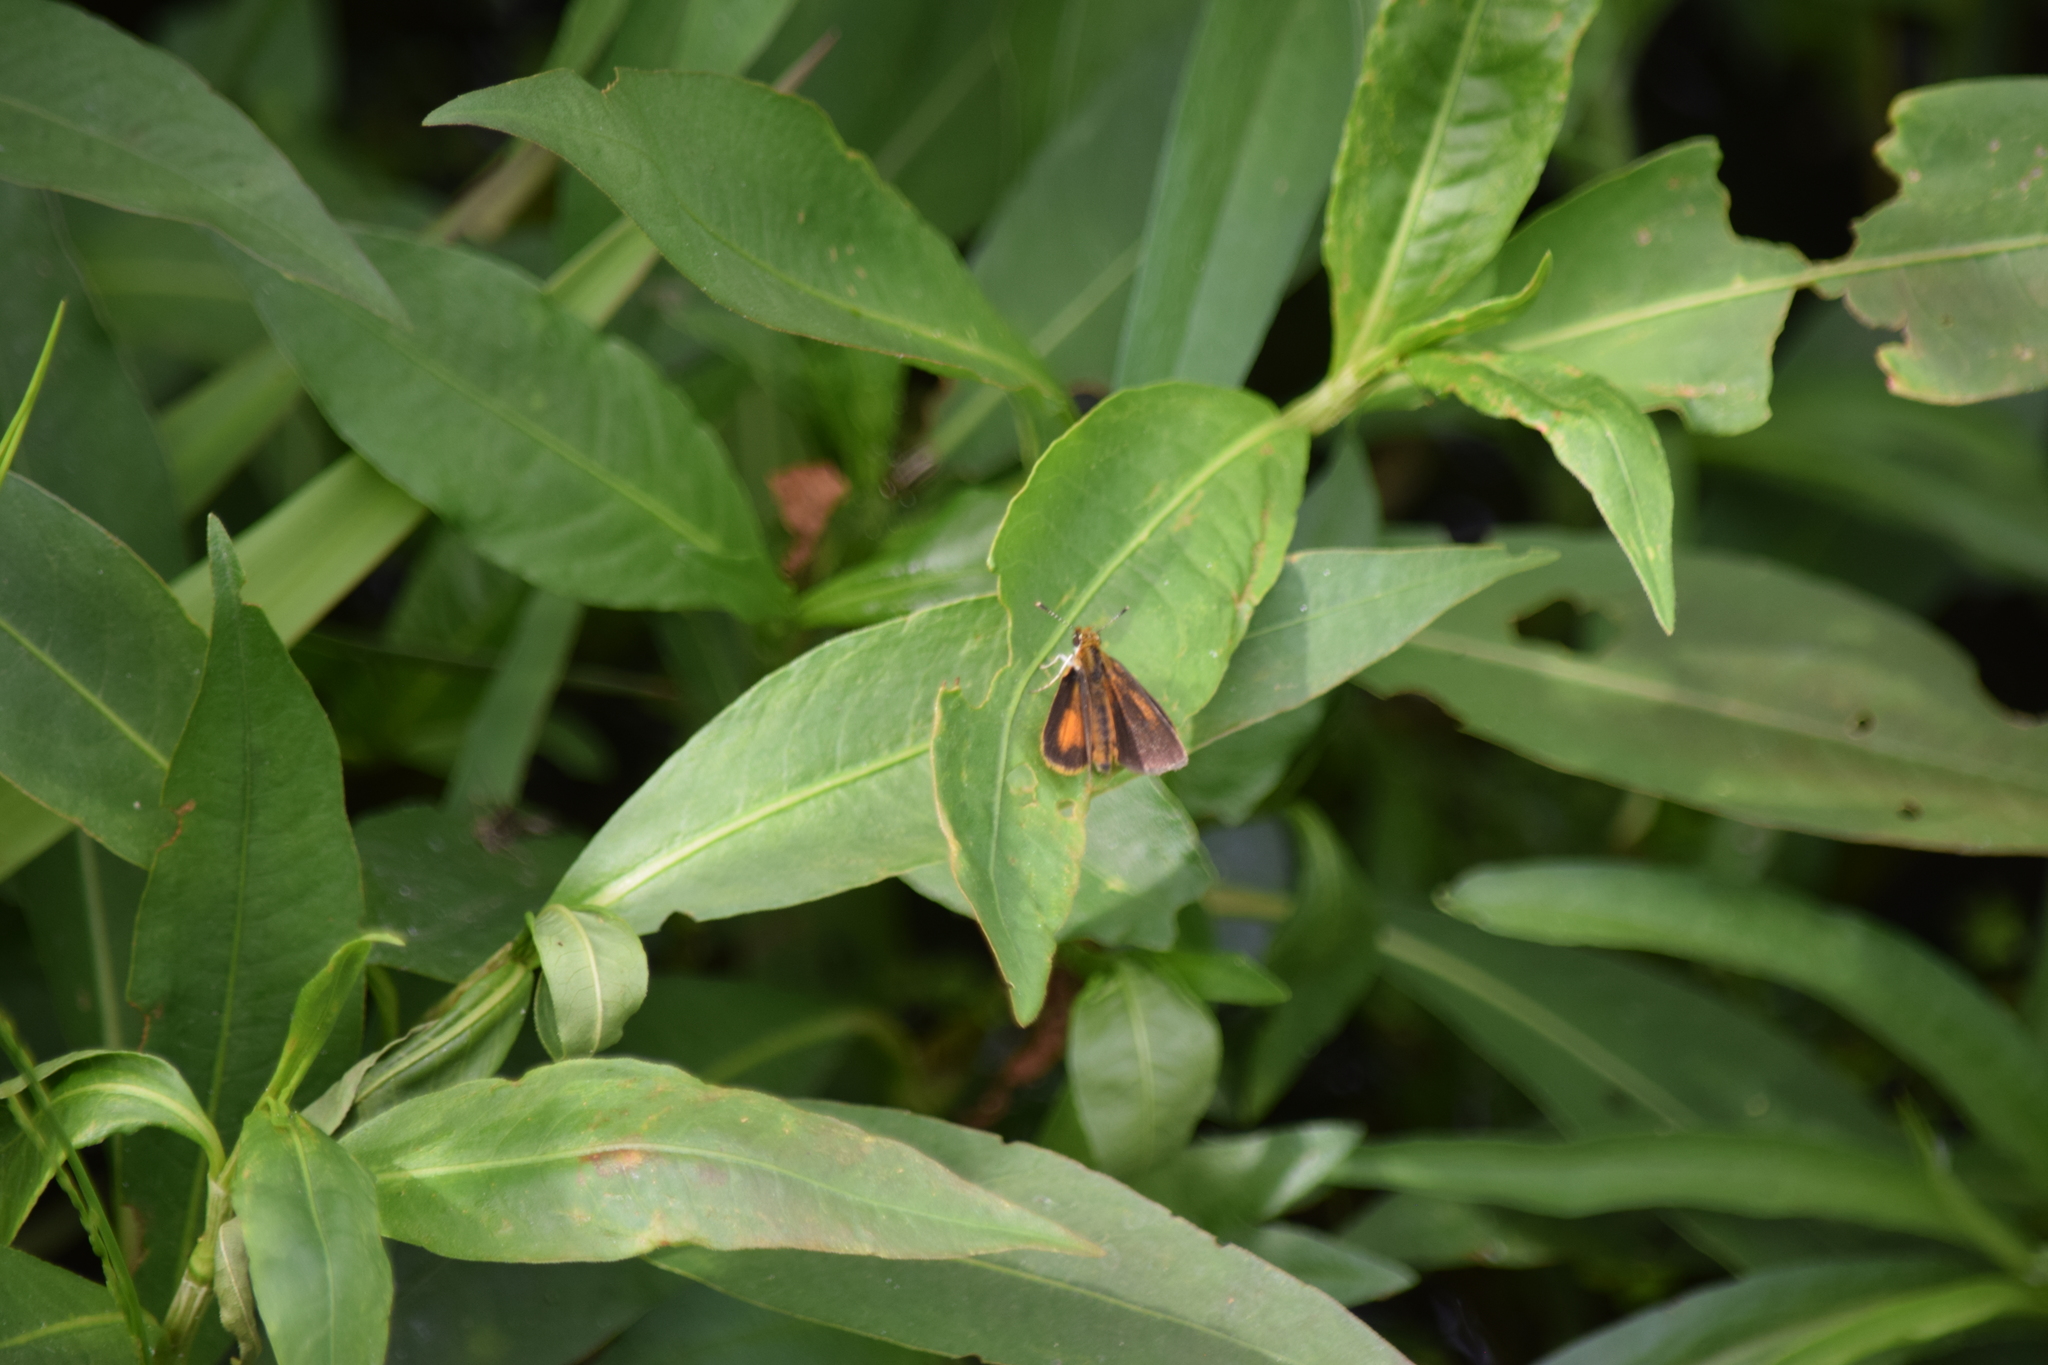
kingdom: Animalia
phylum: Arthropoda
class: Insecta
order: Lepidoptera
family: Hesperiidae
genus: Ancyloxypha
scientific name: Ancyloxypha numitor
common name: Least skipper
